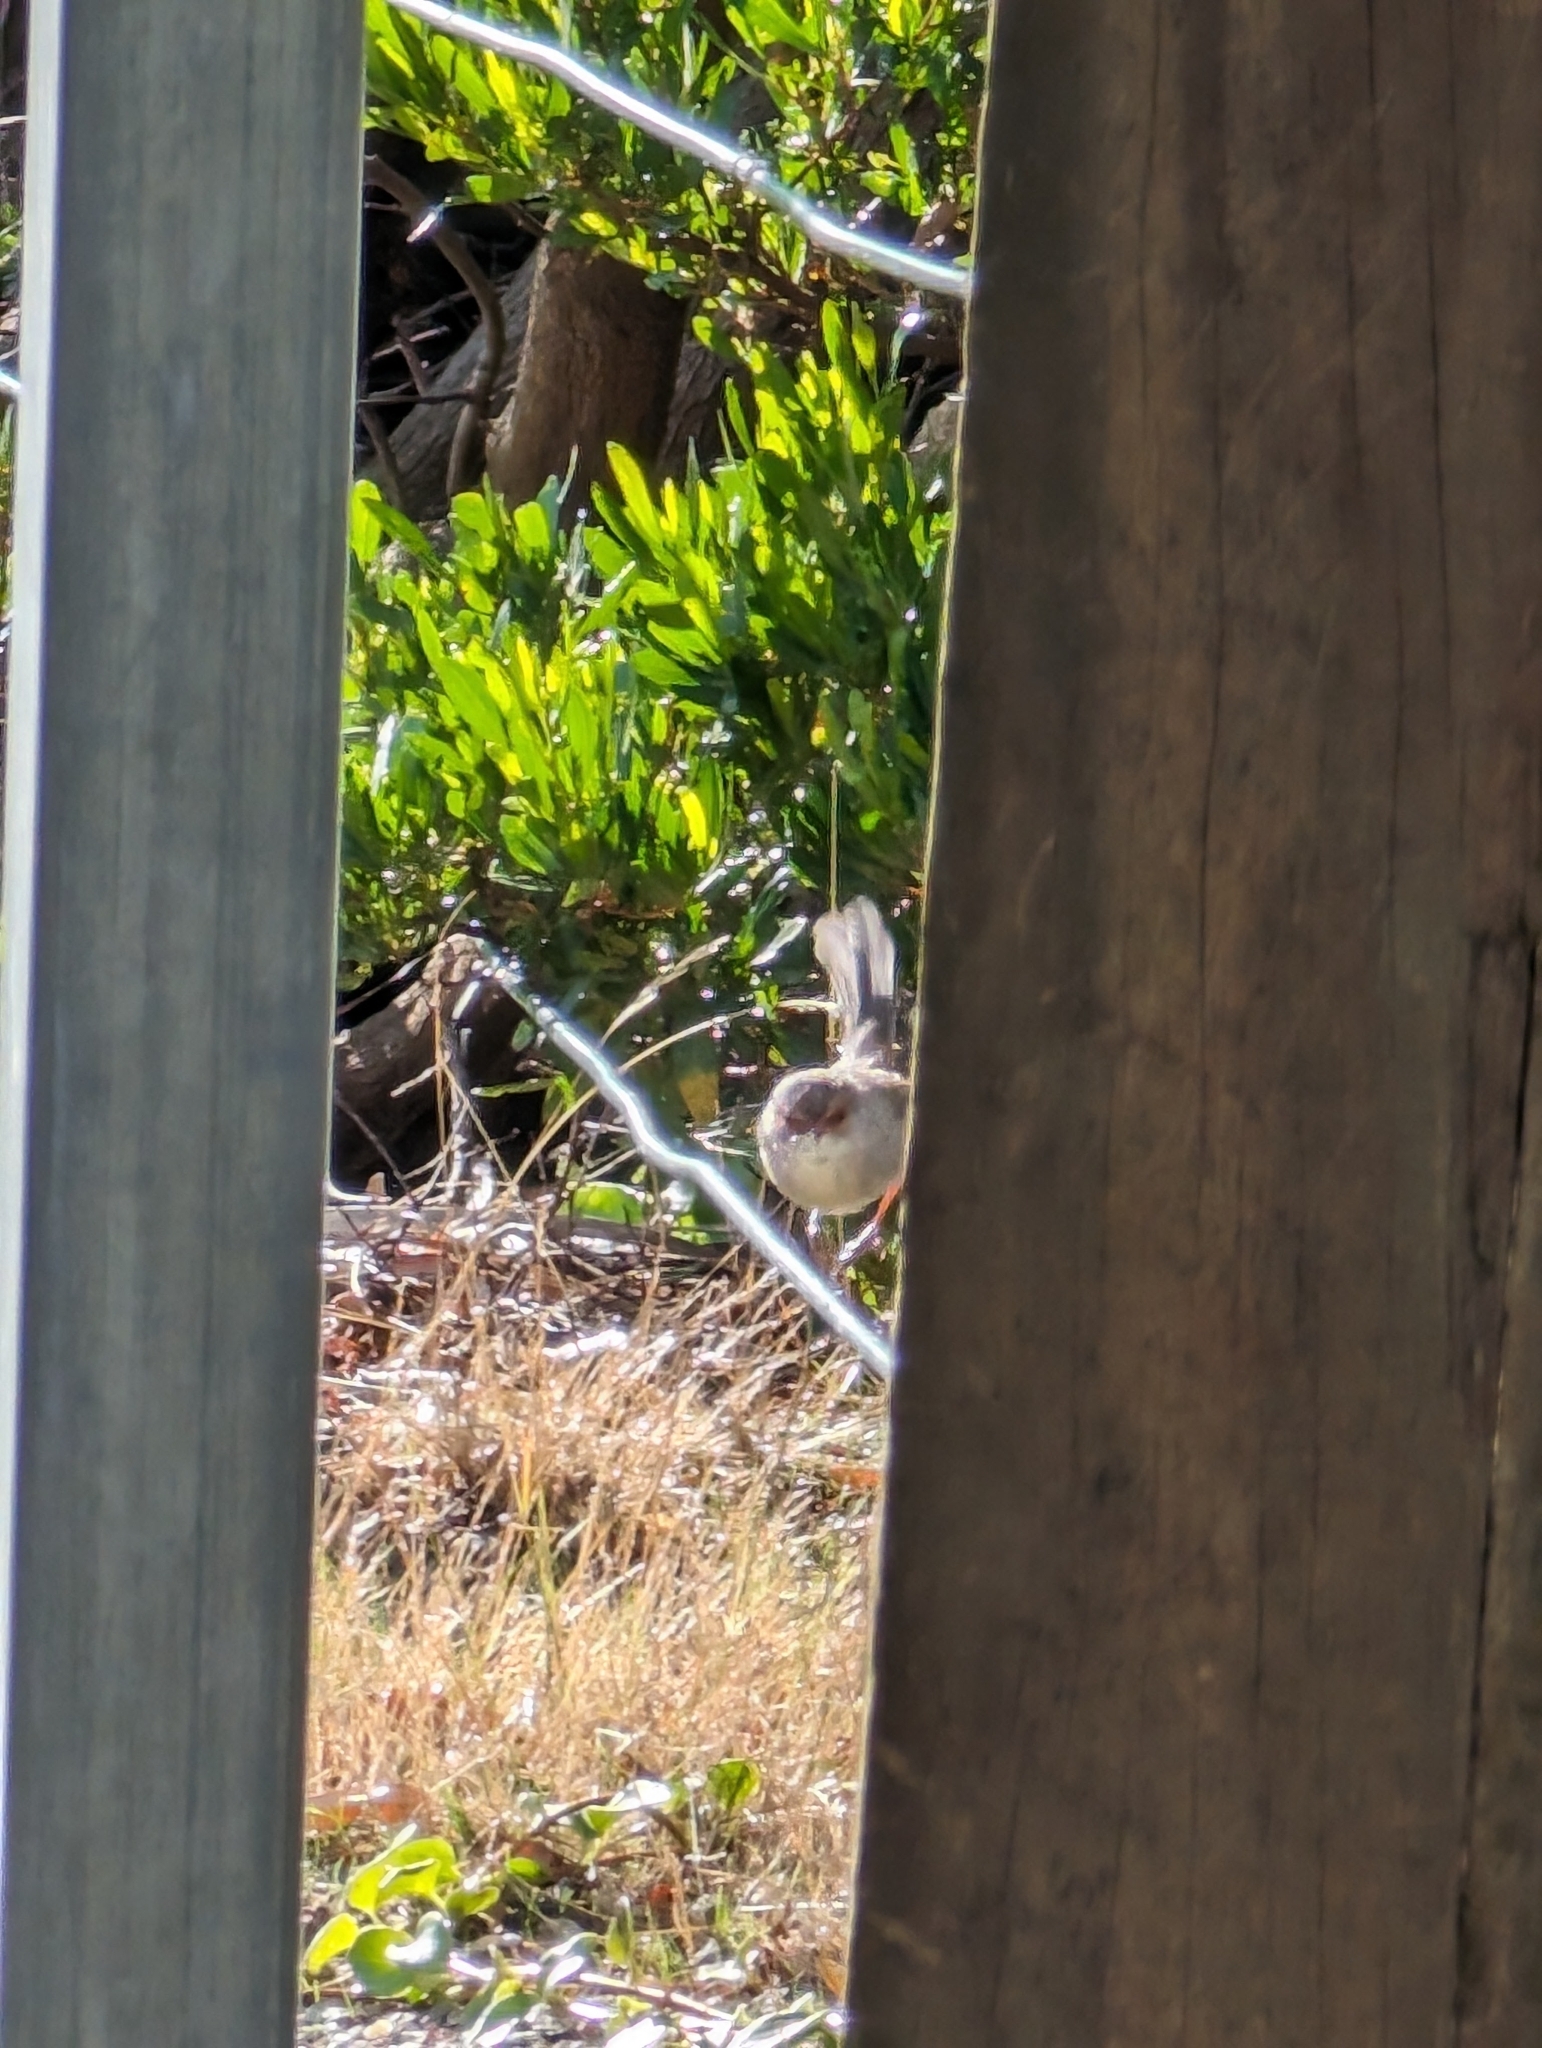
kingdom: Animalia
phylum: Chordata
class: Aves
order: Passeriformes
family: Maluridae
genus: Malurus
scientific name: Malurus cyaneus
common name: Superb fairywren
